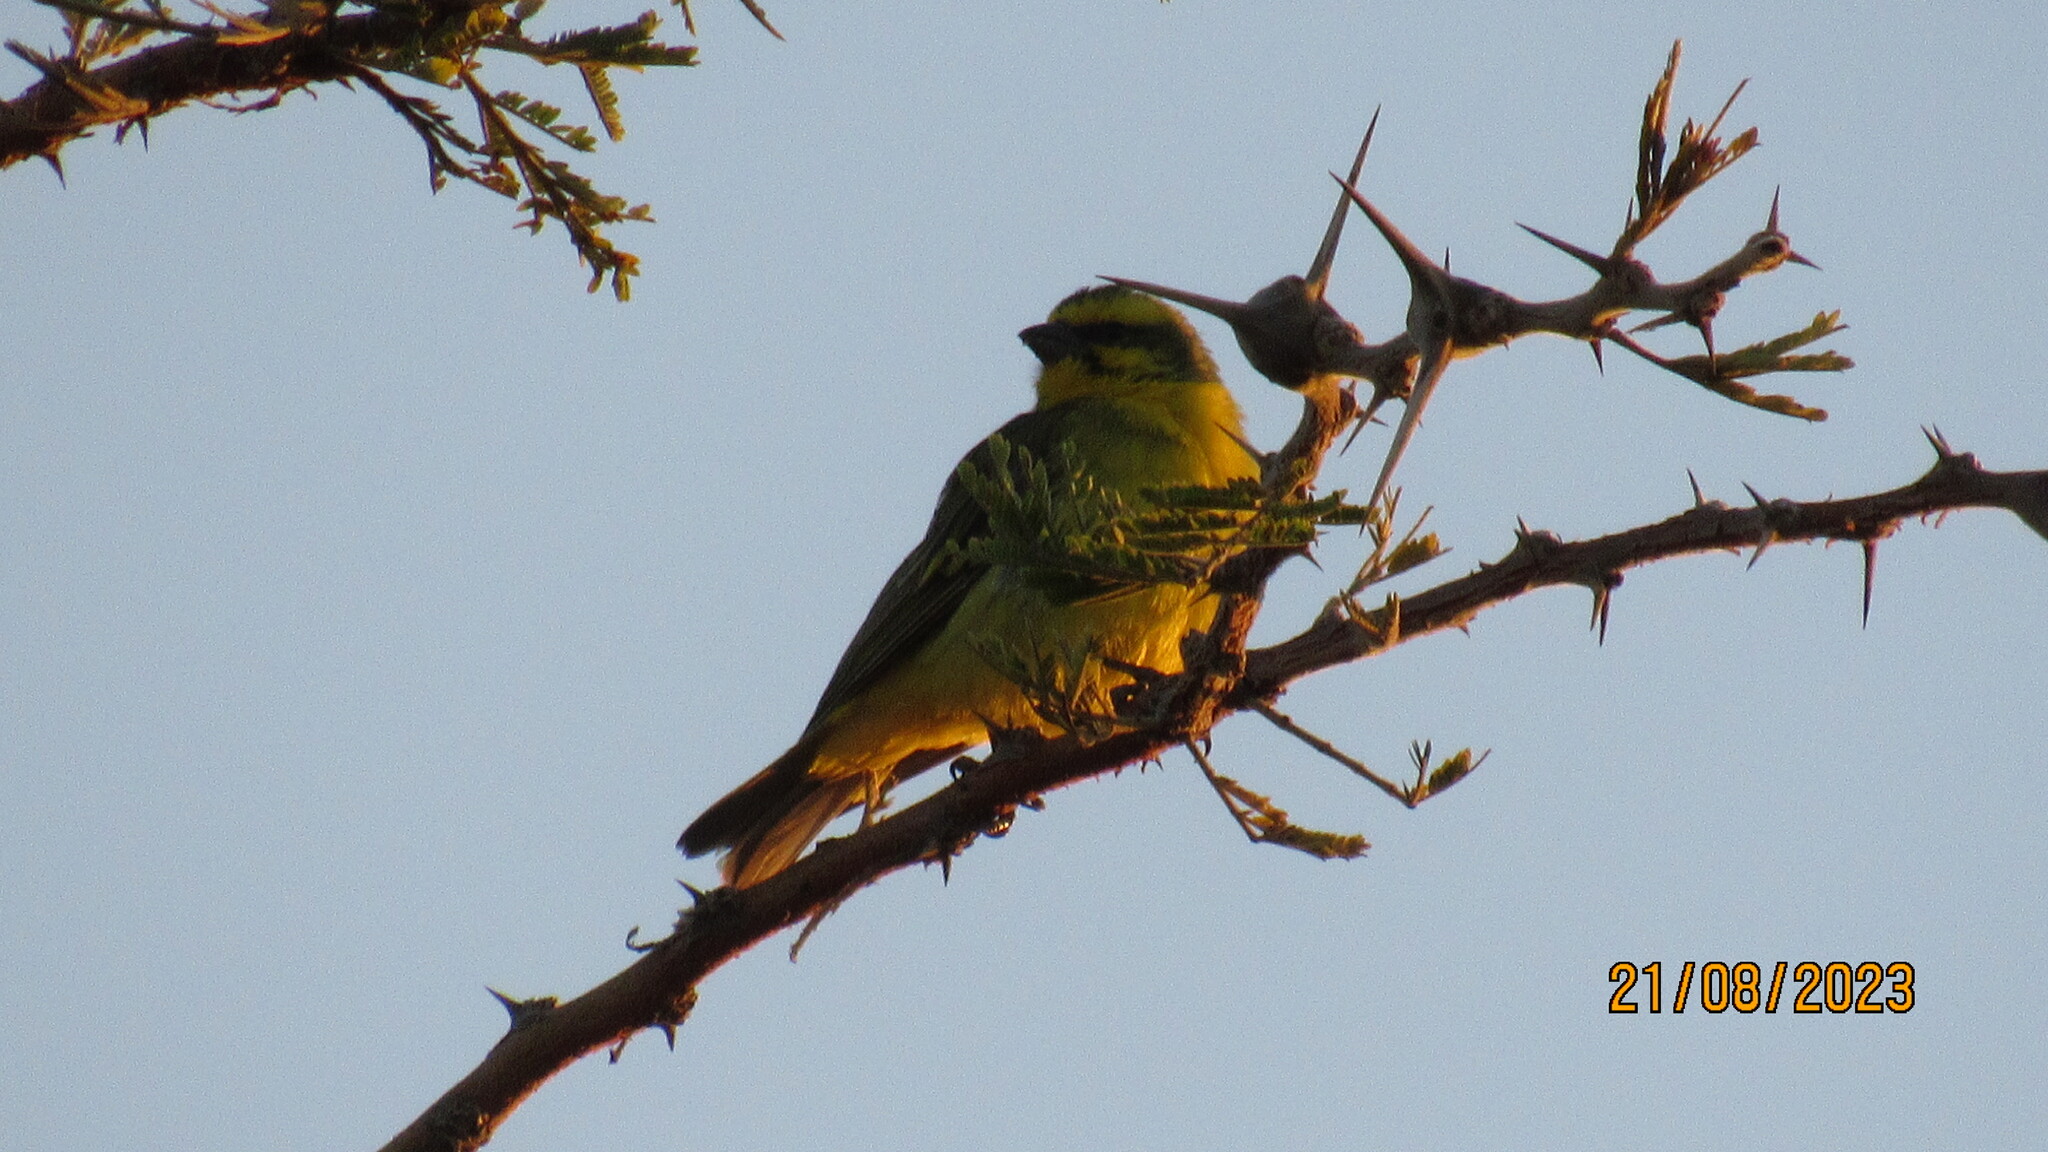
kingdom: Animalia
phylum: Chordata
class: Aves
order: Passeriformes
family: Fringillidae
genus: Crithagra
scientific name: Crithagra mozambica
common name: Yellow-fronted canary
